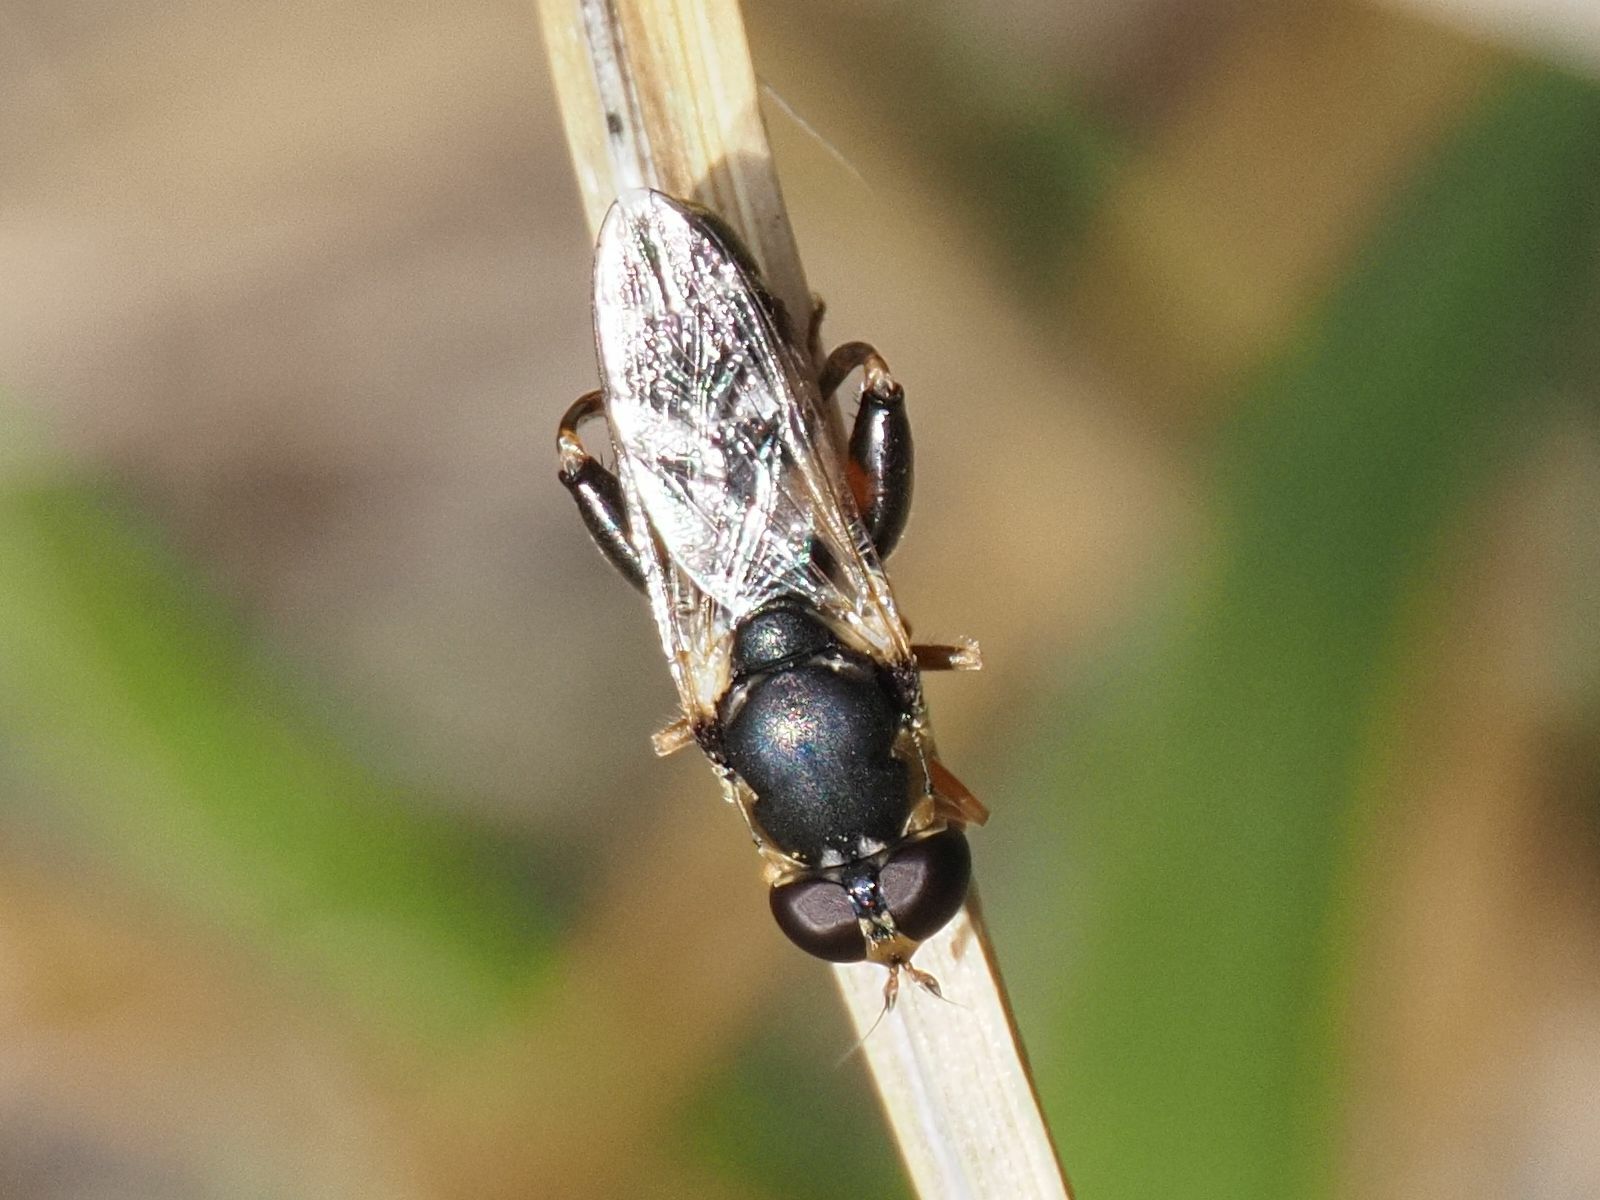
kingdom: Animalia
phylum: Arthropoda
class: Insecta
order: Diptera
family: Syrphidae
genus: Syritta
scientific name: Syritta pipiens
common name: Hover fly
